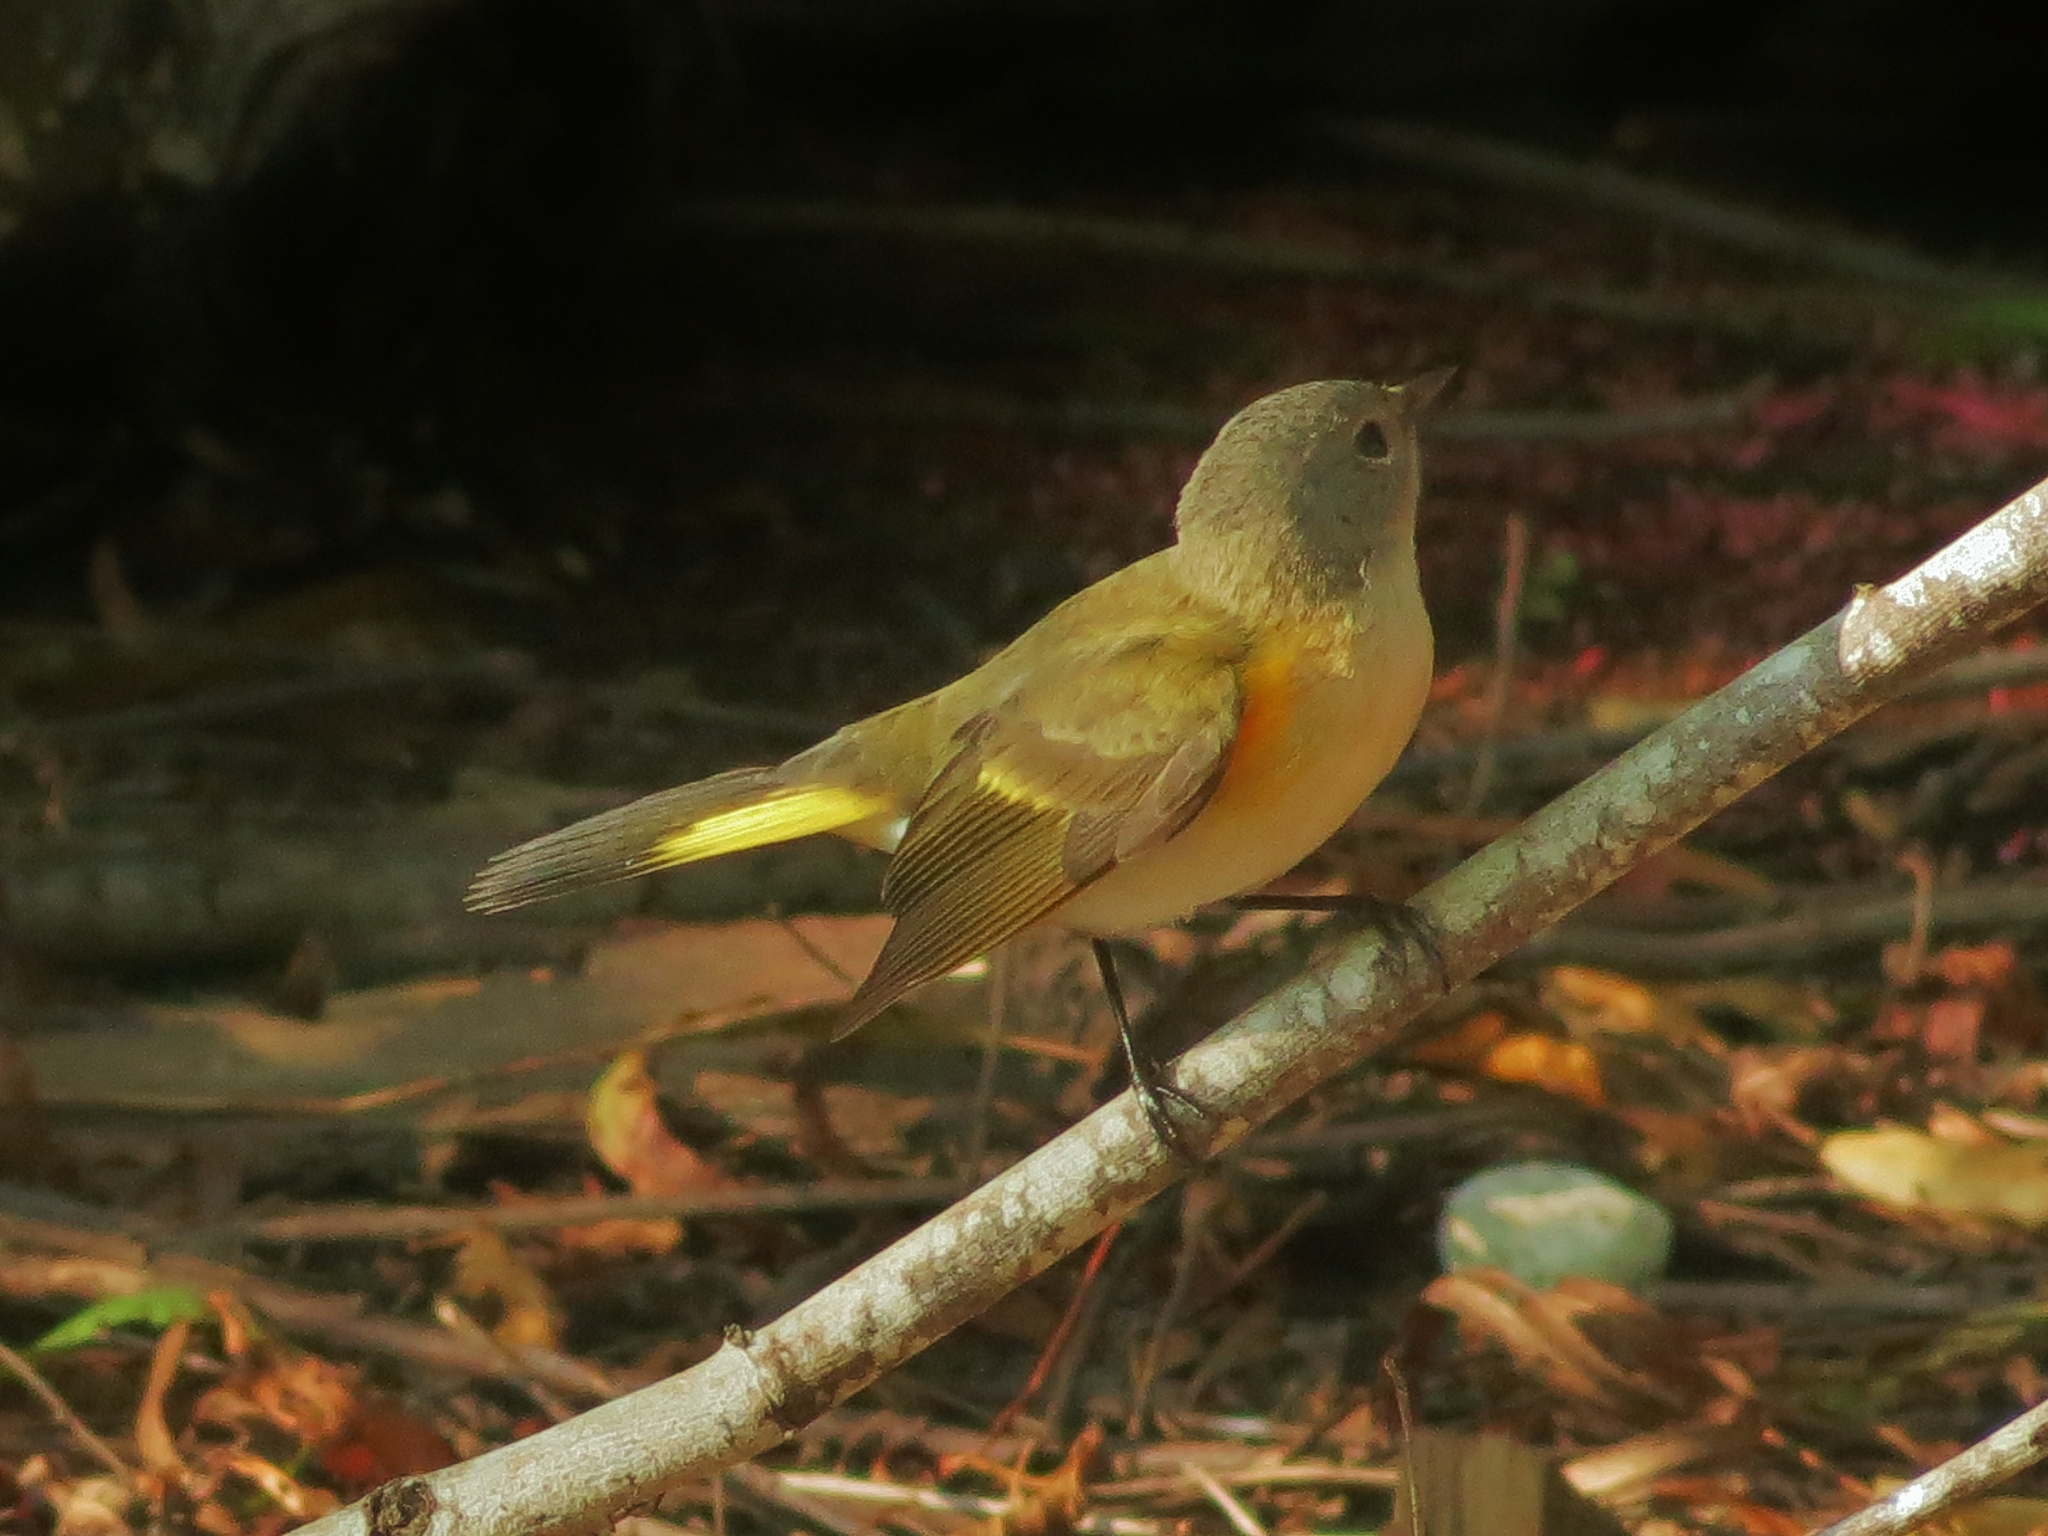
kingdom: Animalia
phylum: Chordata
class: Aves
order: Passeriformes
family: Parulidae
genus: Setophaga
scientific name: Setophaga ruticilla
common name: American redstart
